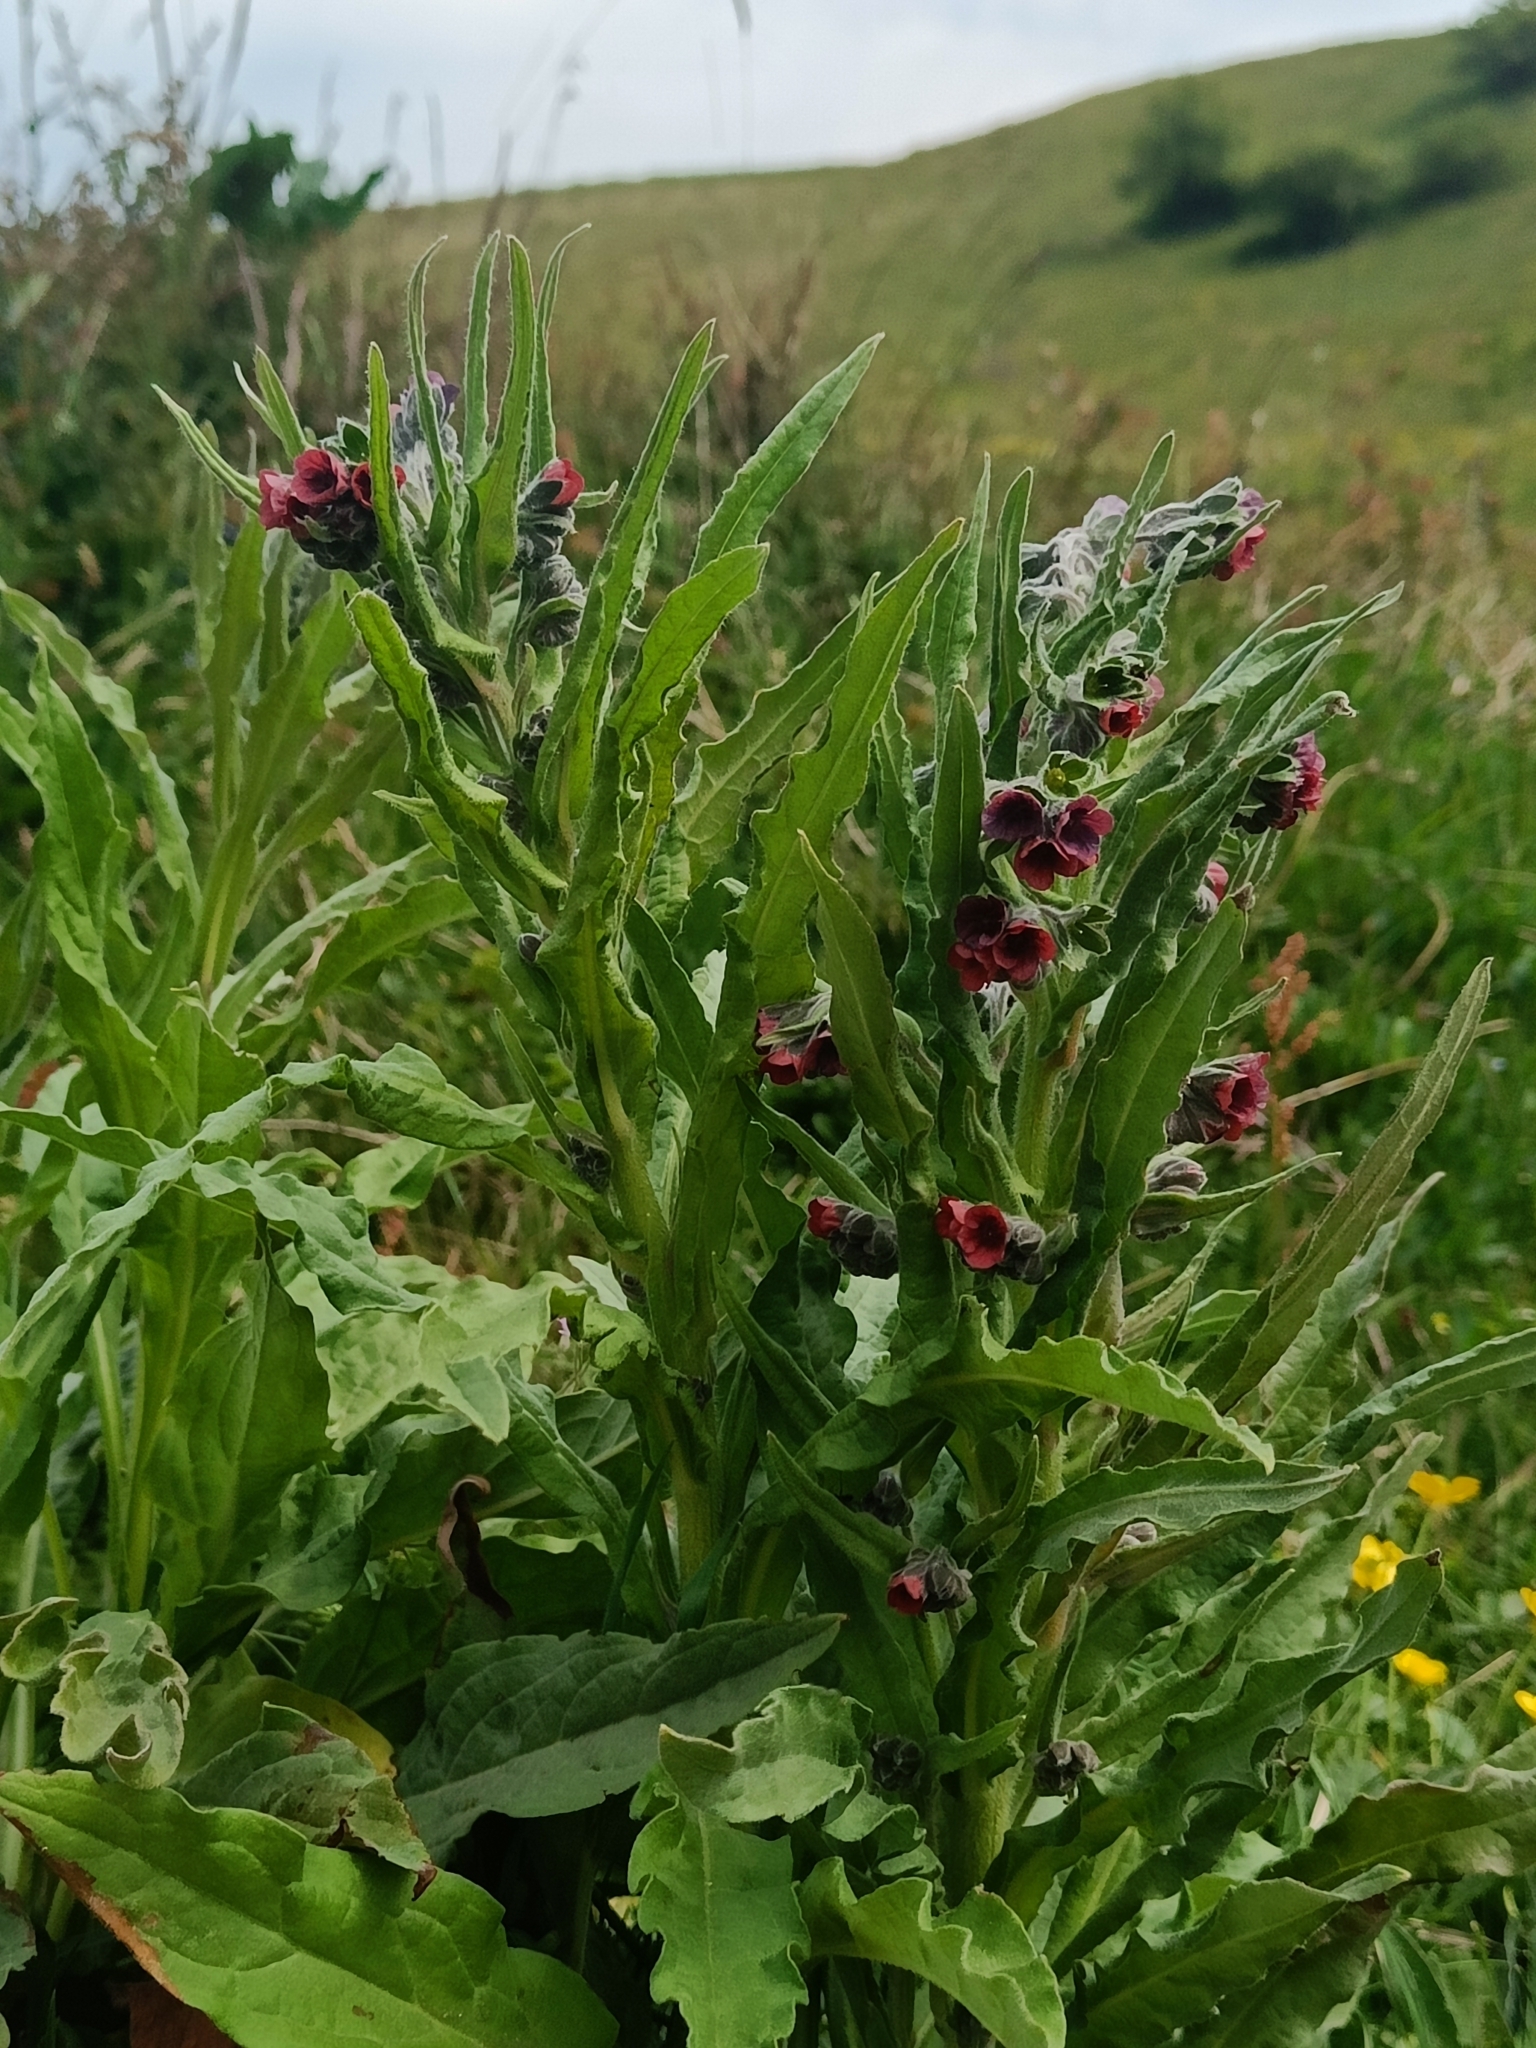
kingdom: Plantae
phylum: Tracheophyta
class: Magnoliopsida
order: Boraginales
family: Boraginaceae
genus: Cynoglossum
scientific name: Cynoglossum officinale
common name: Hound's-tongue
